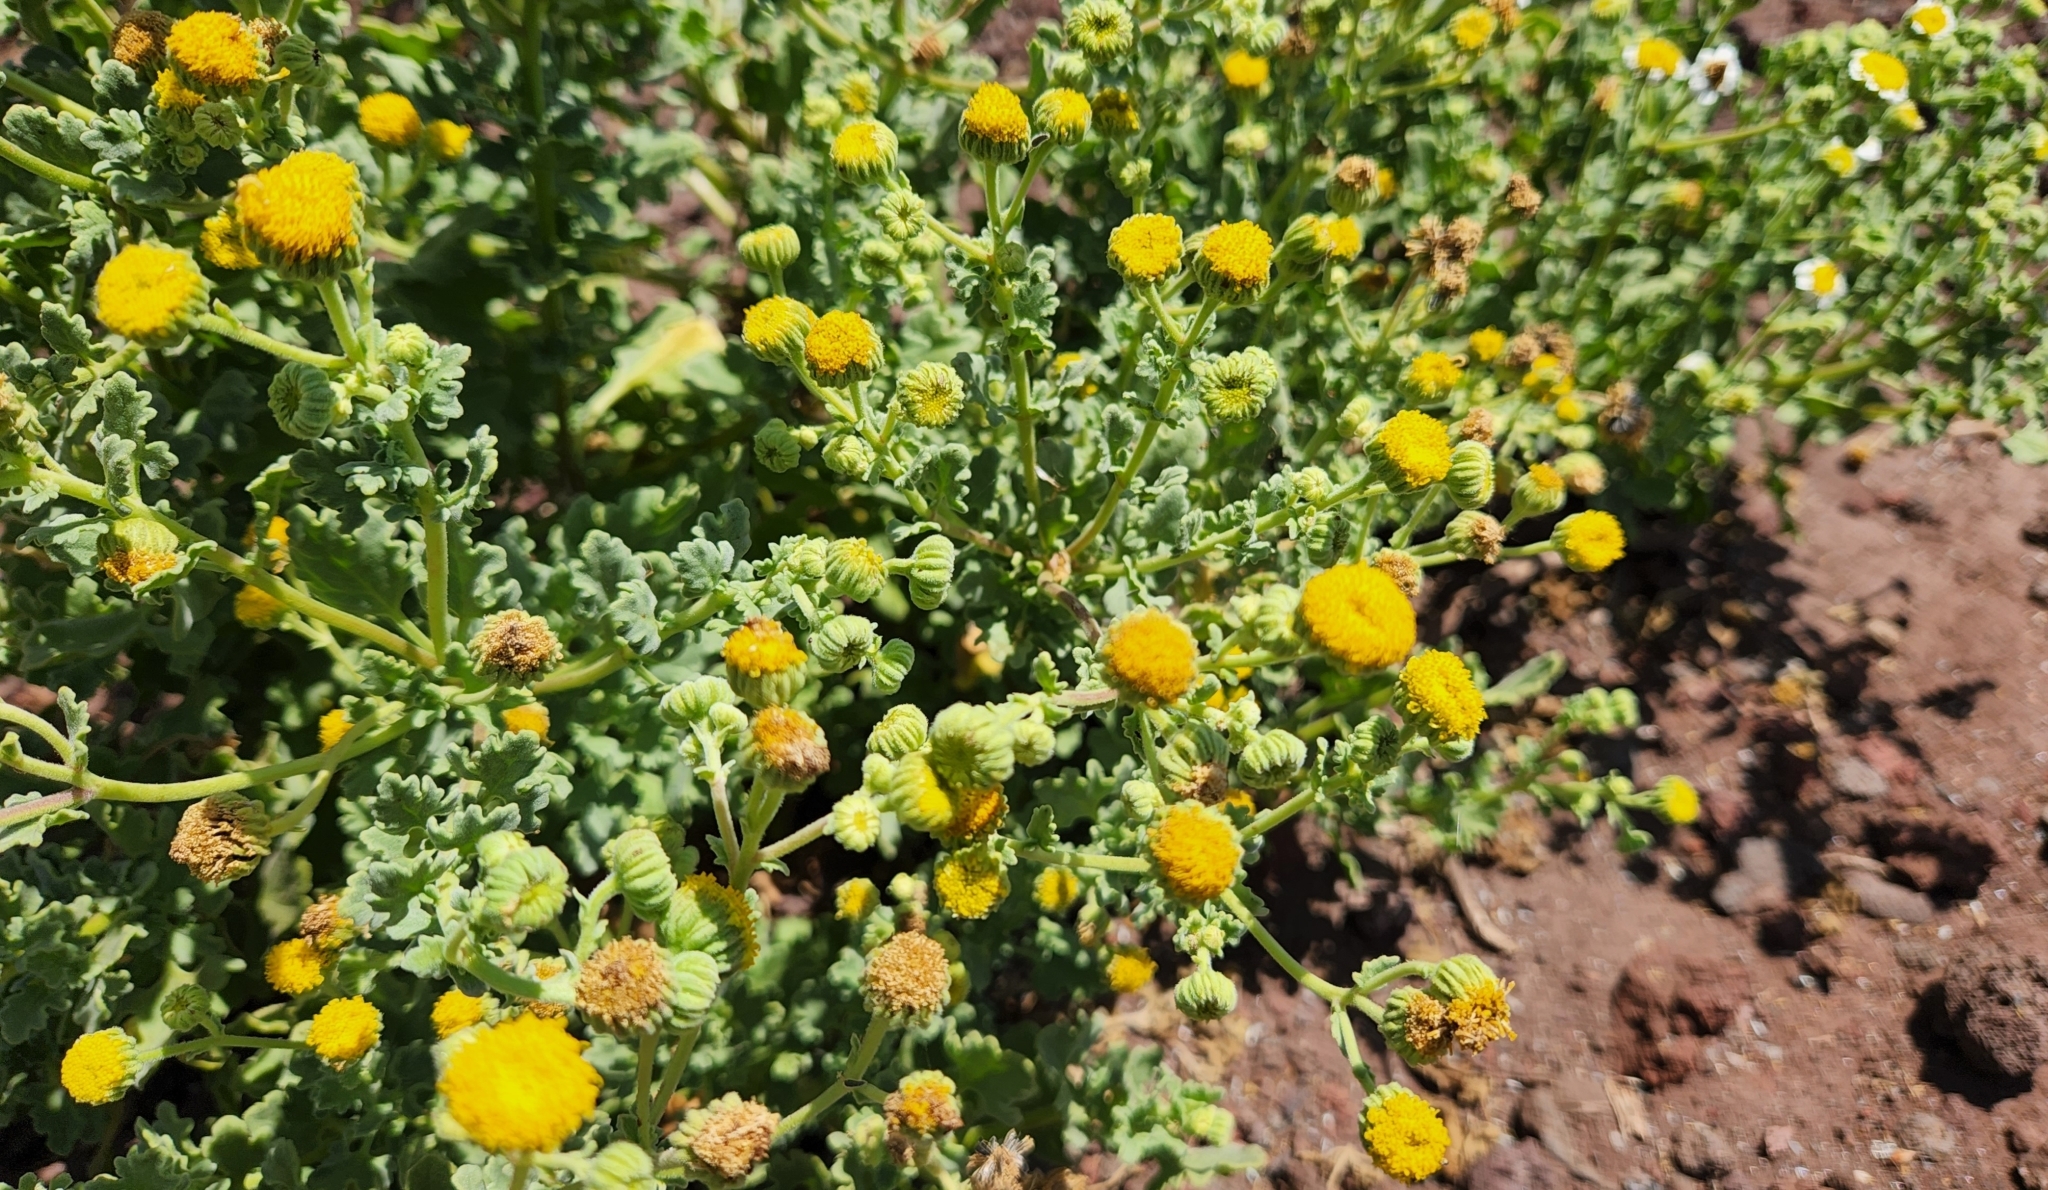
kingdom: Plantae
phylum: Tracheophyta
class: Magnoliopsida
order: Asterales
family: Asteraceae
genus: Perityle
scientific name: Perityle socorrosensis
